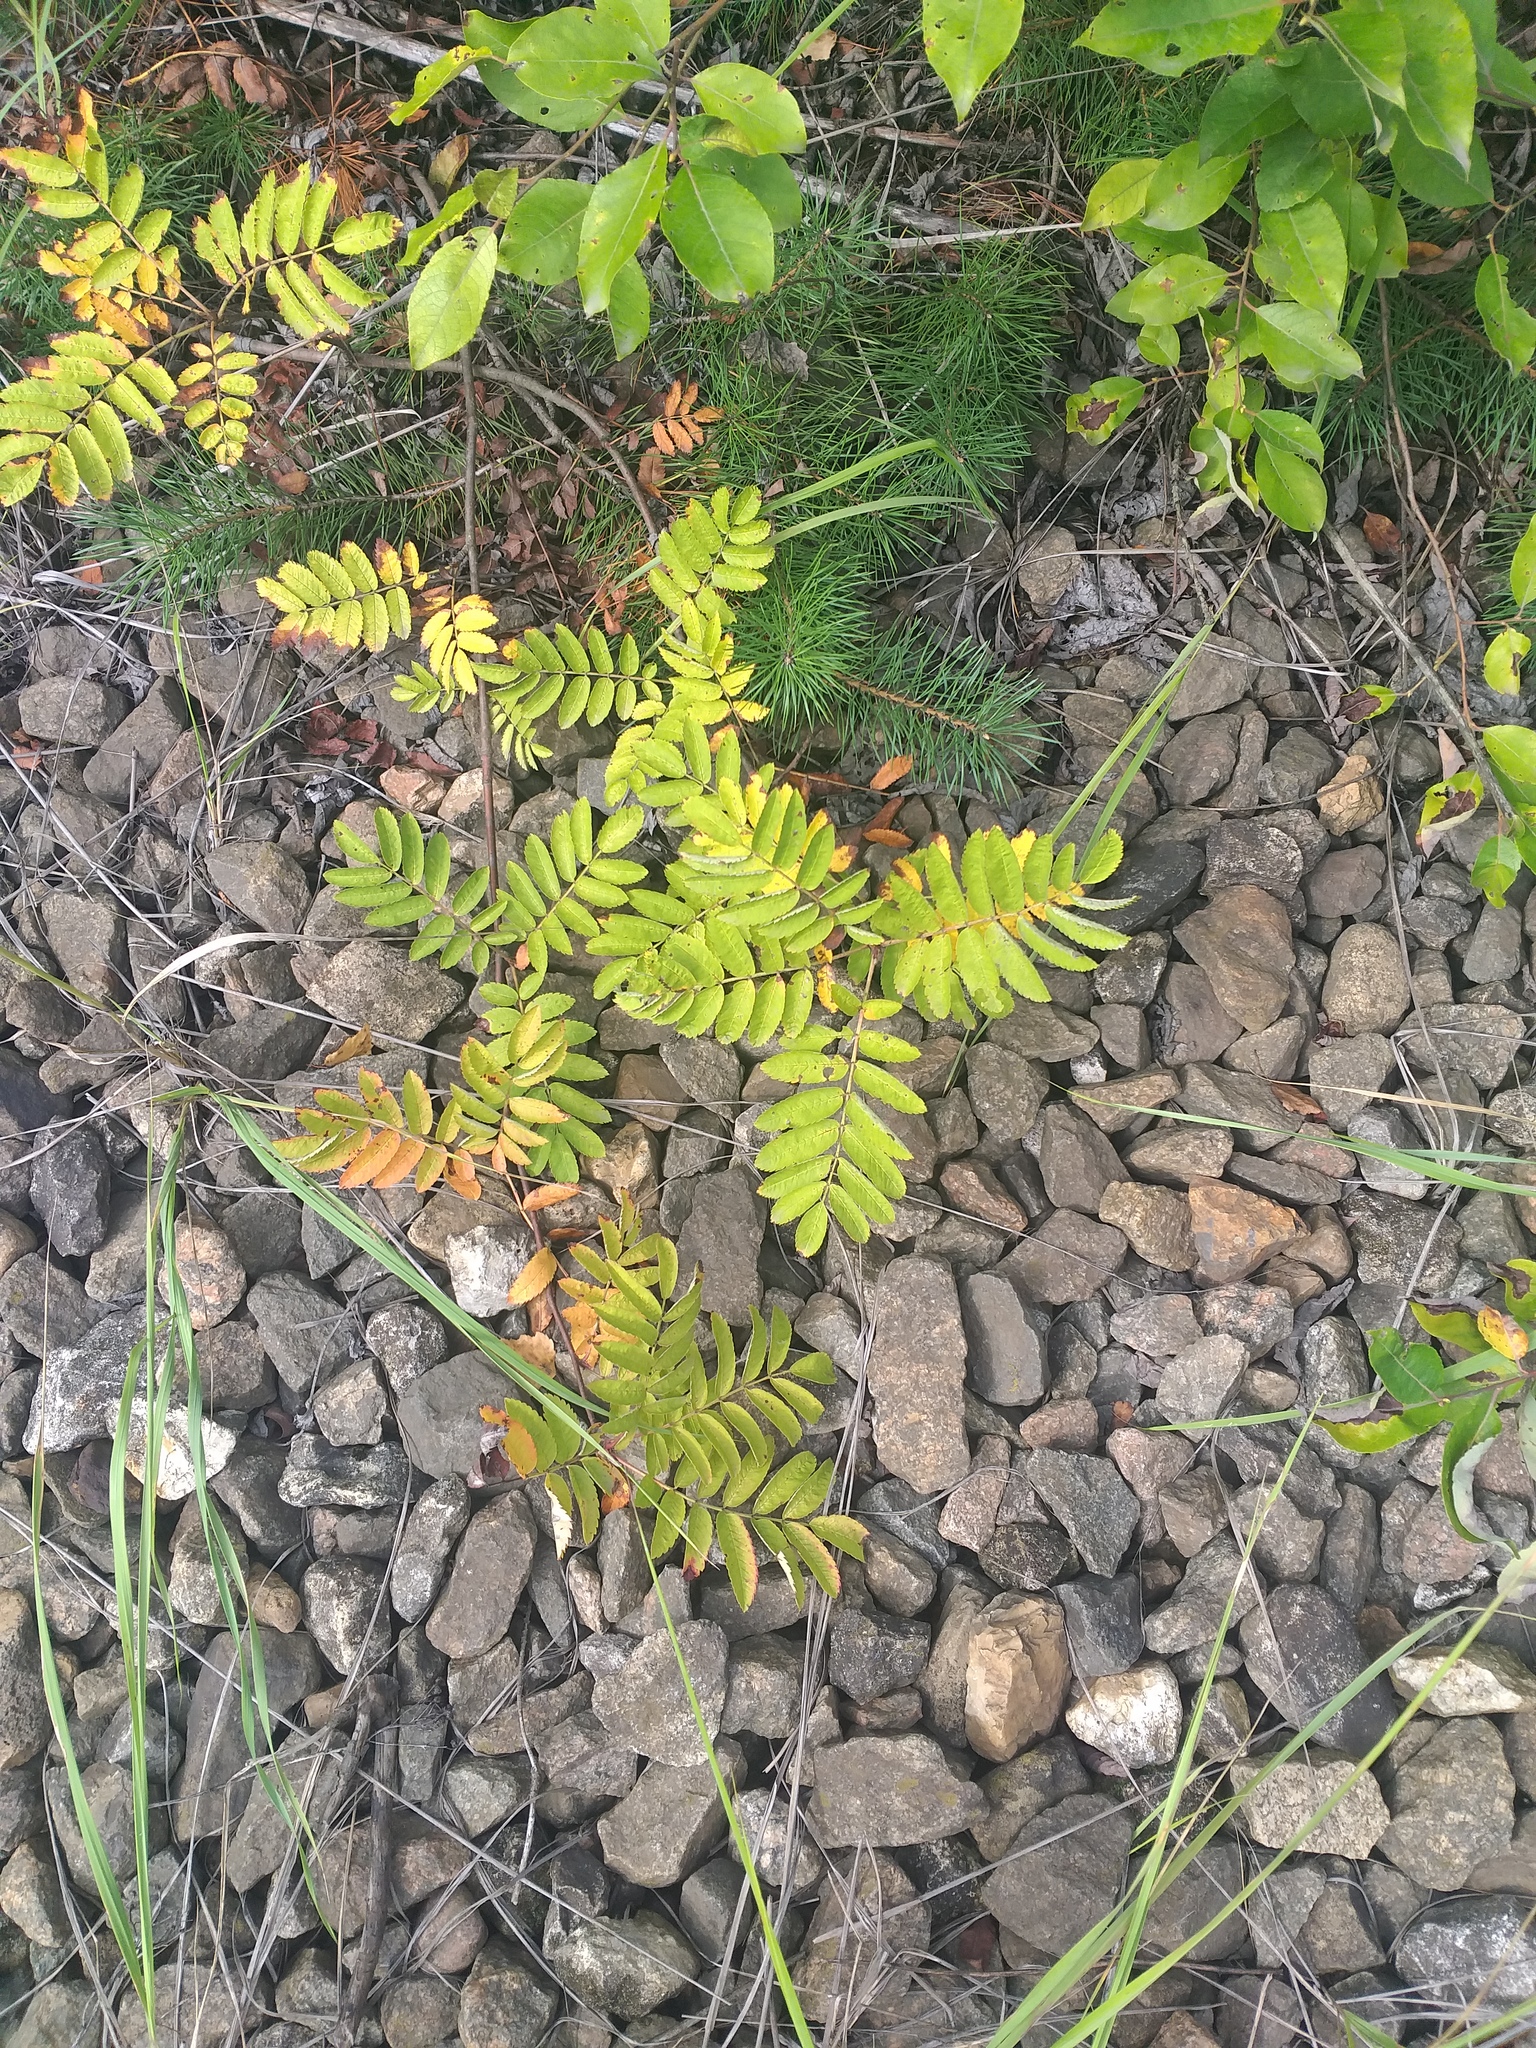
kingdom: Plantae
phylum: Tracheophyta
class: Magnoliopsida
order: Rosales
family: Rosaceae
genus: Sorbus
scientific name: Sorbus aucuparia
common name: Rowan
